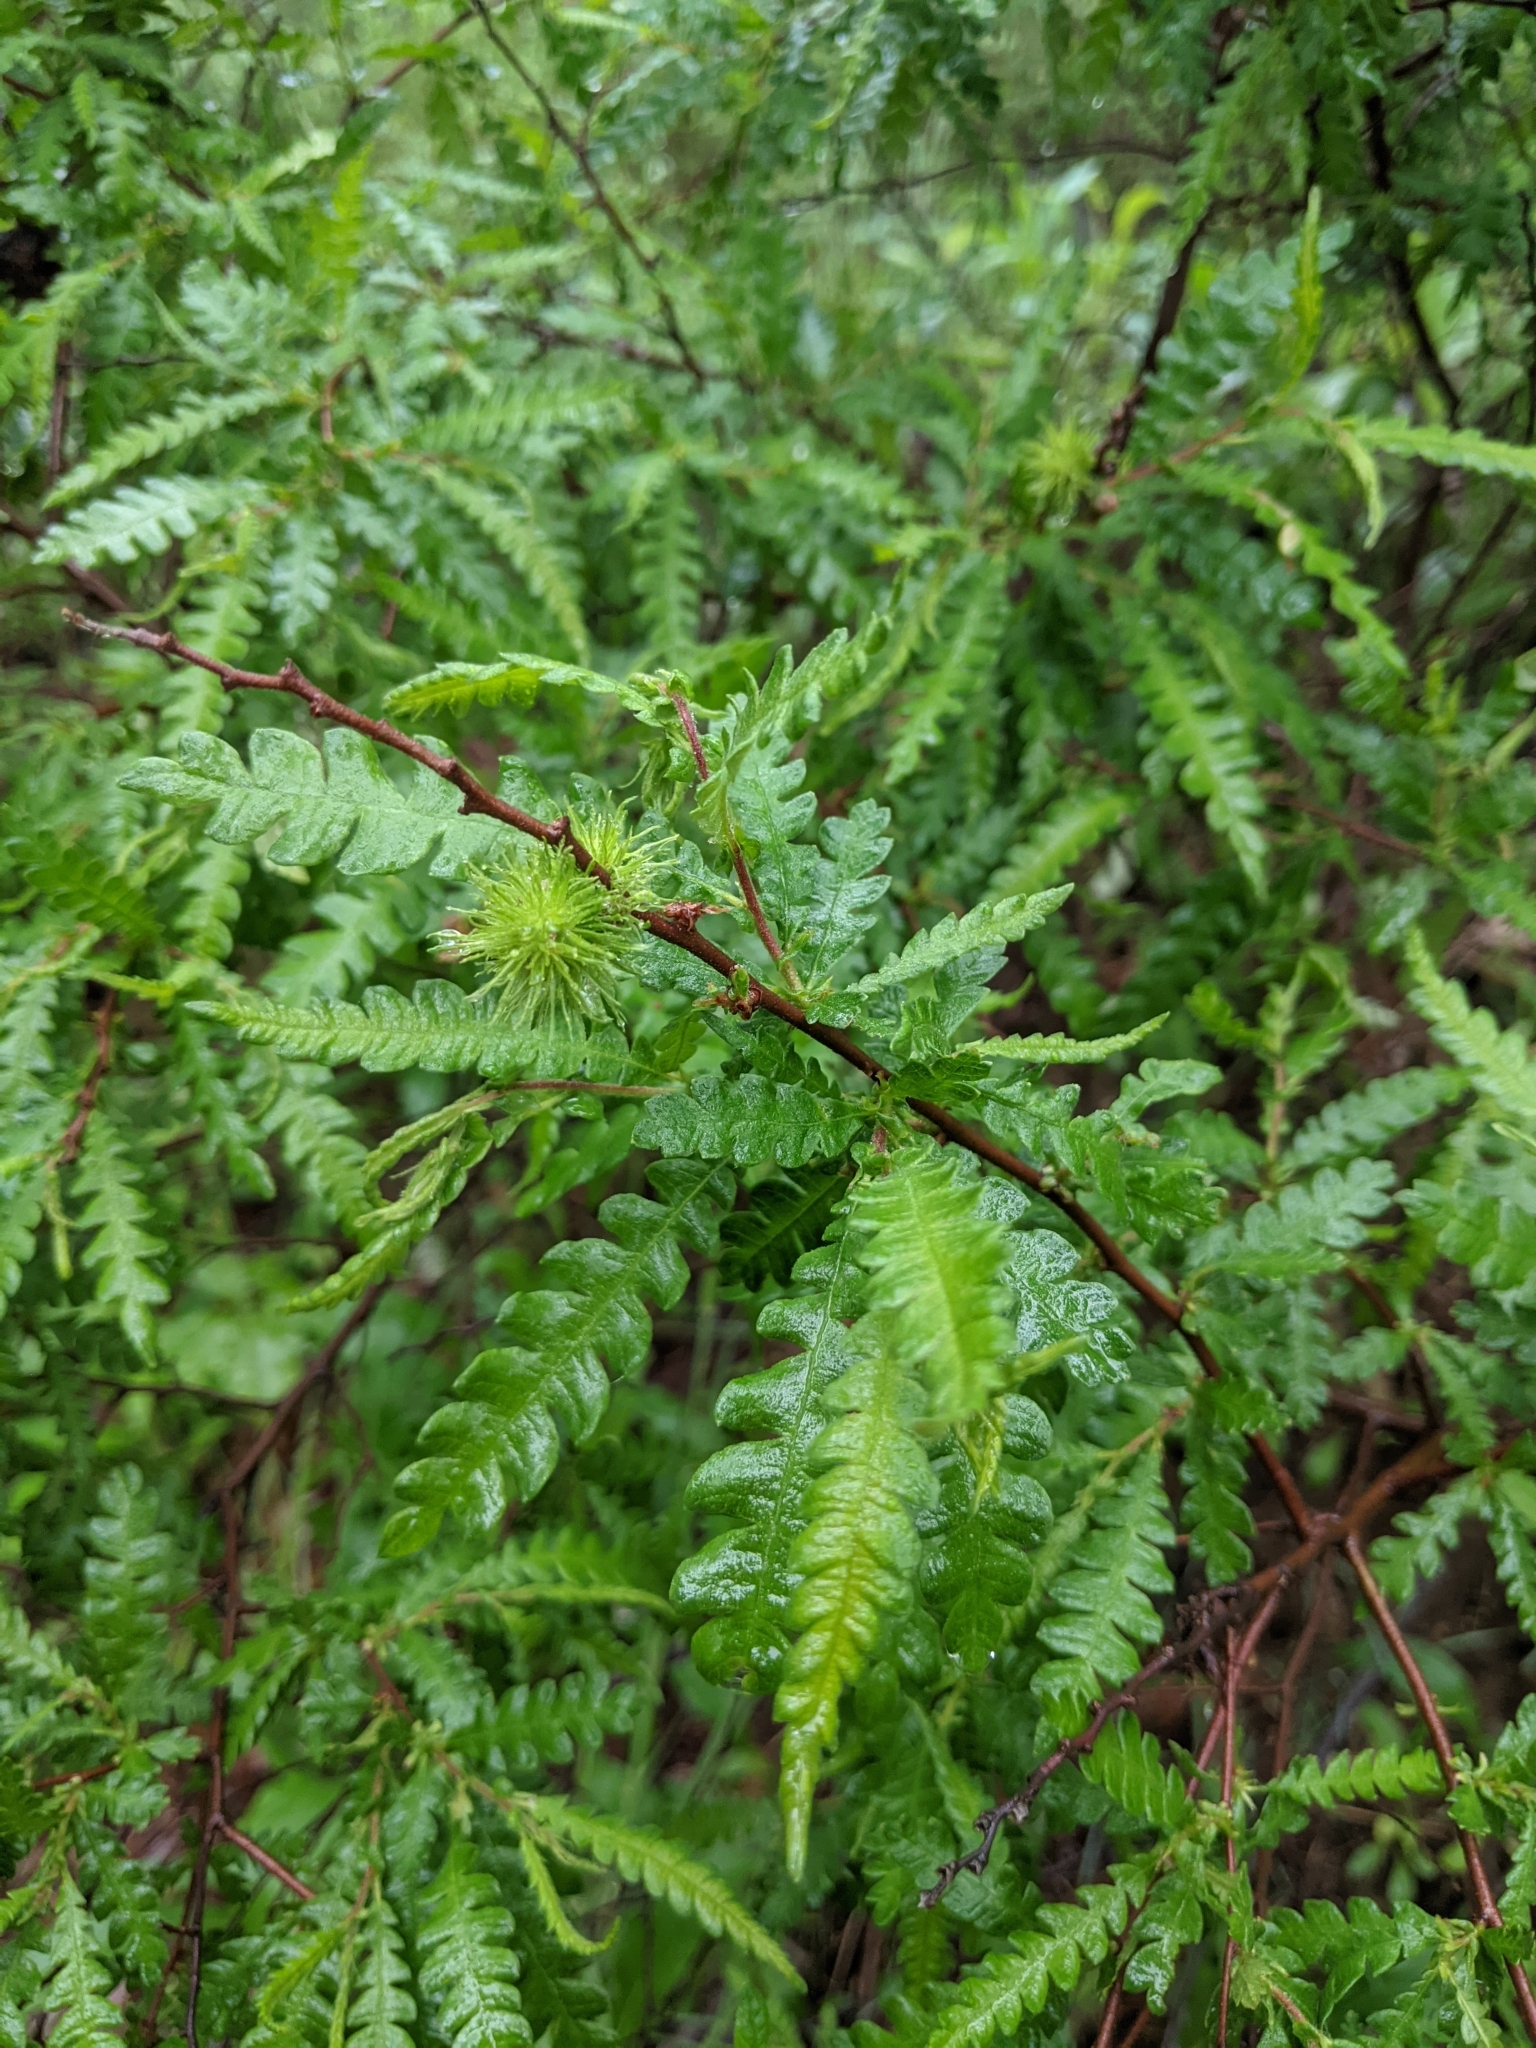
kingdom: Plantae
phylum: Tracheophyta
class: Magnoliopsida
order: Fagales
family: Myricaceae
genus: Comptonia
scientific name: Comptonia peregrina
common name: Sweet-fern
